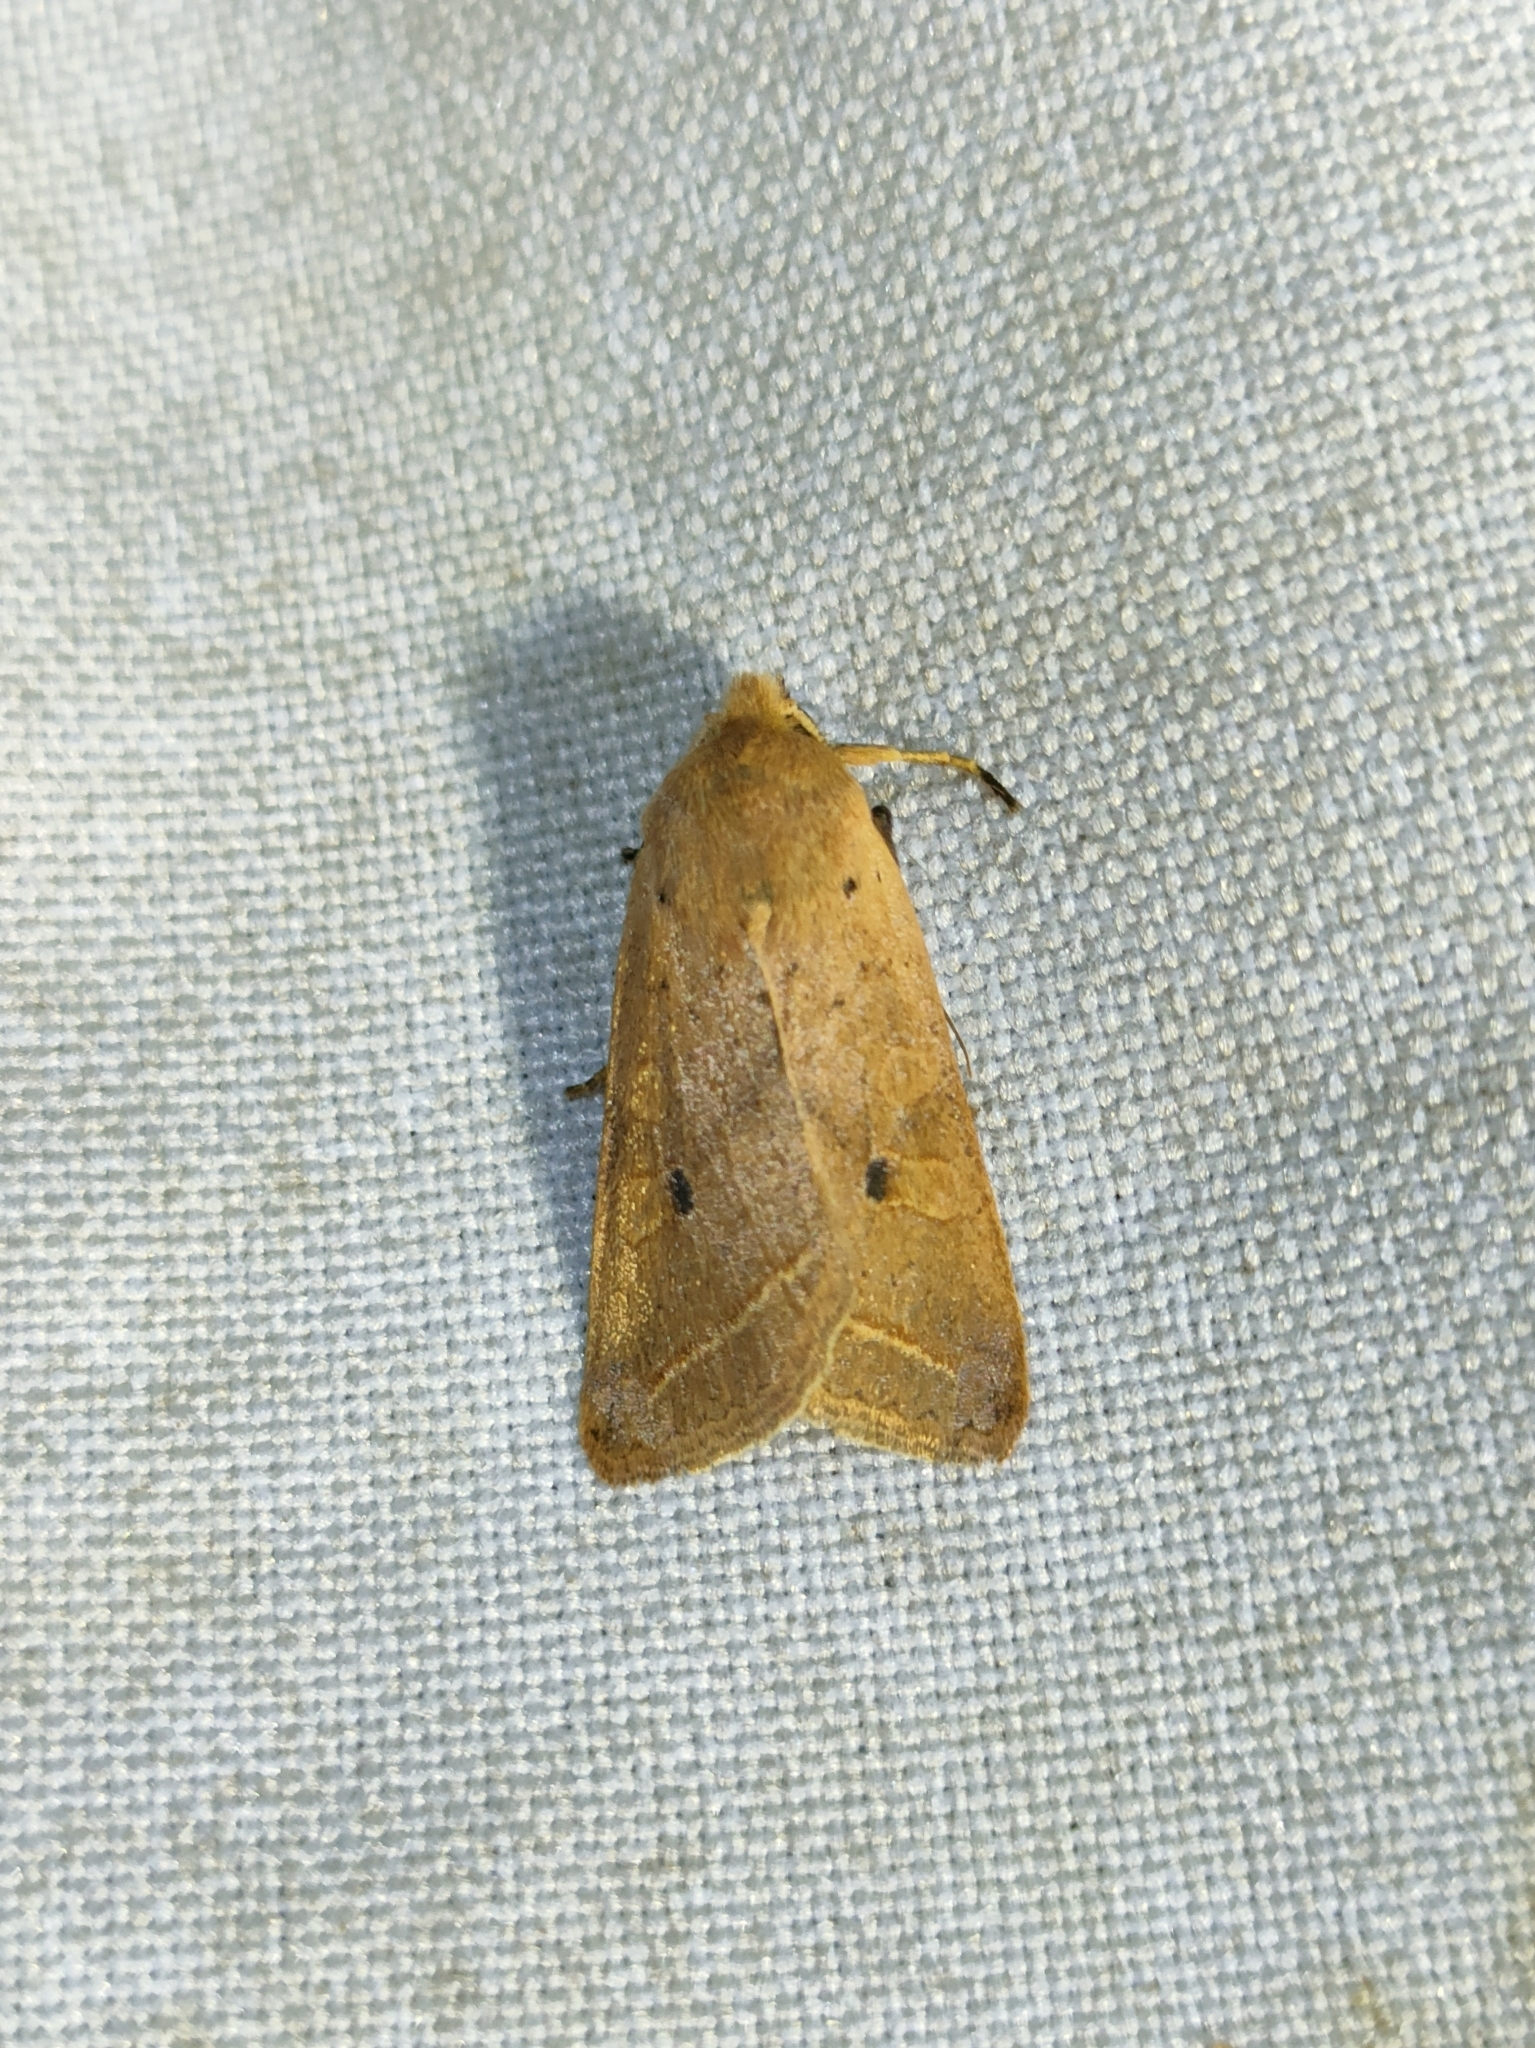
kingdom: Animalia
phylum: Arthropoda
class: Insecta
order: Lepidoptera
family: Noctuidae
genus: Agrochola
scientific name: Agrochola macilenta
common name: Yellow-line quaker
